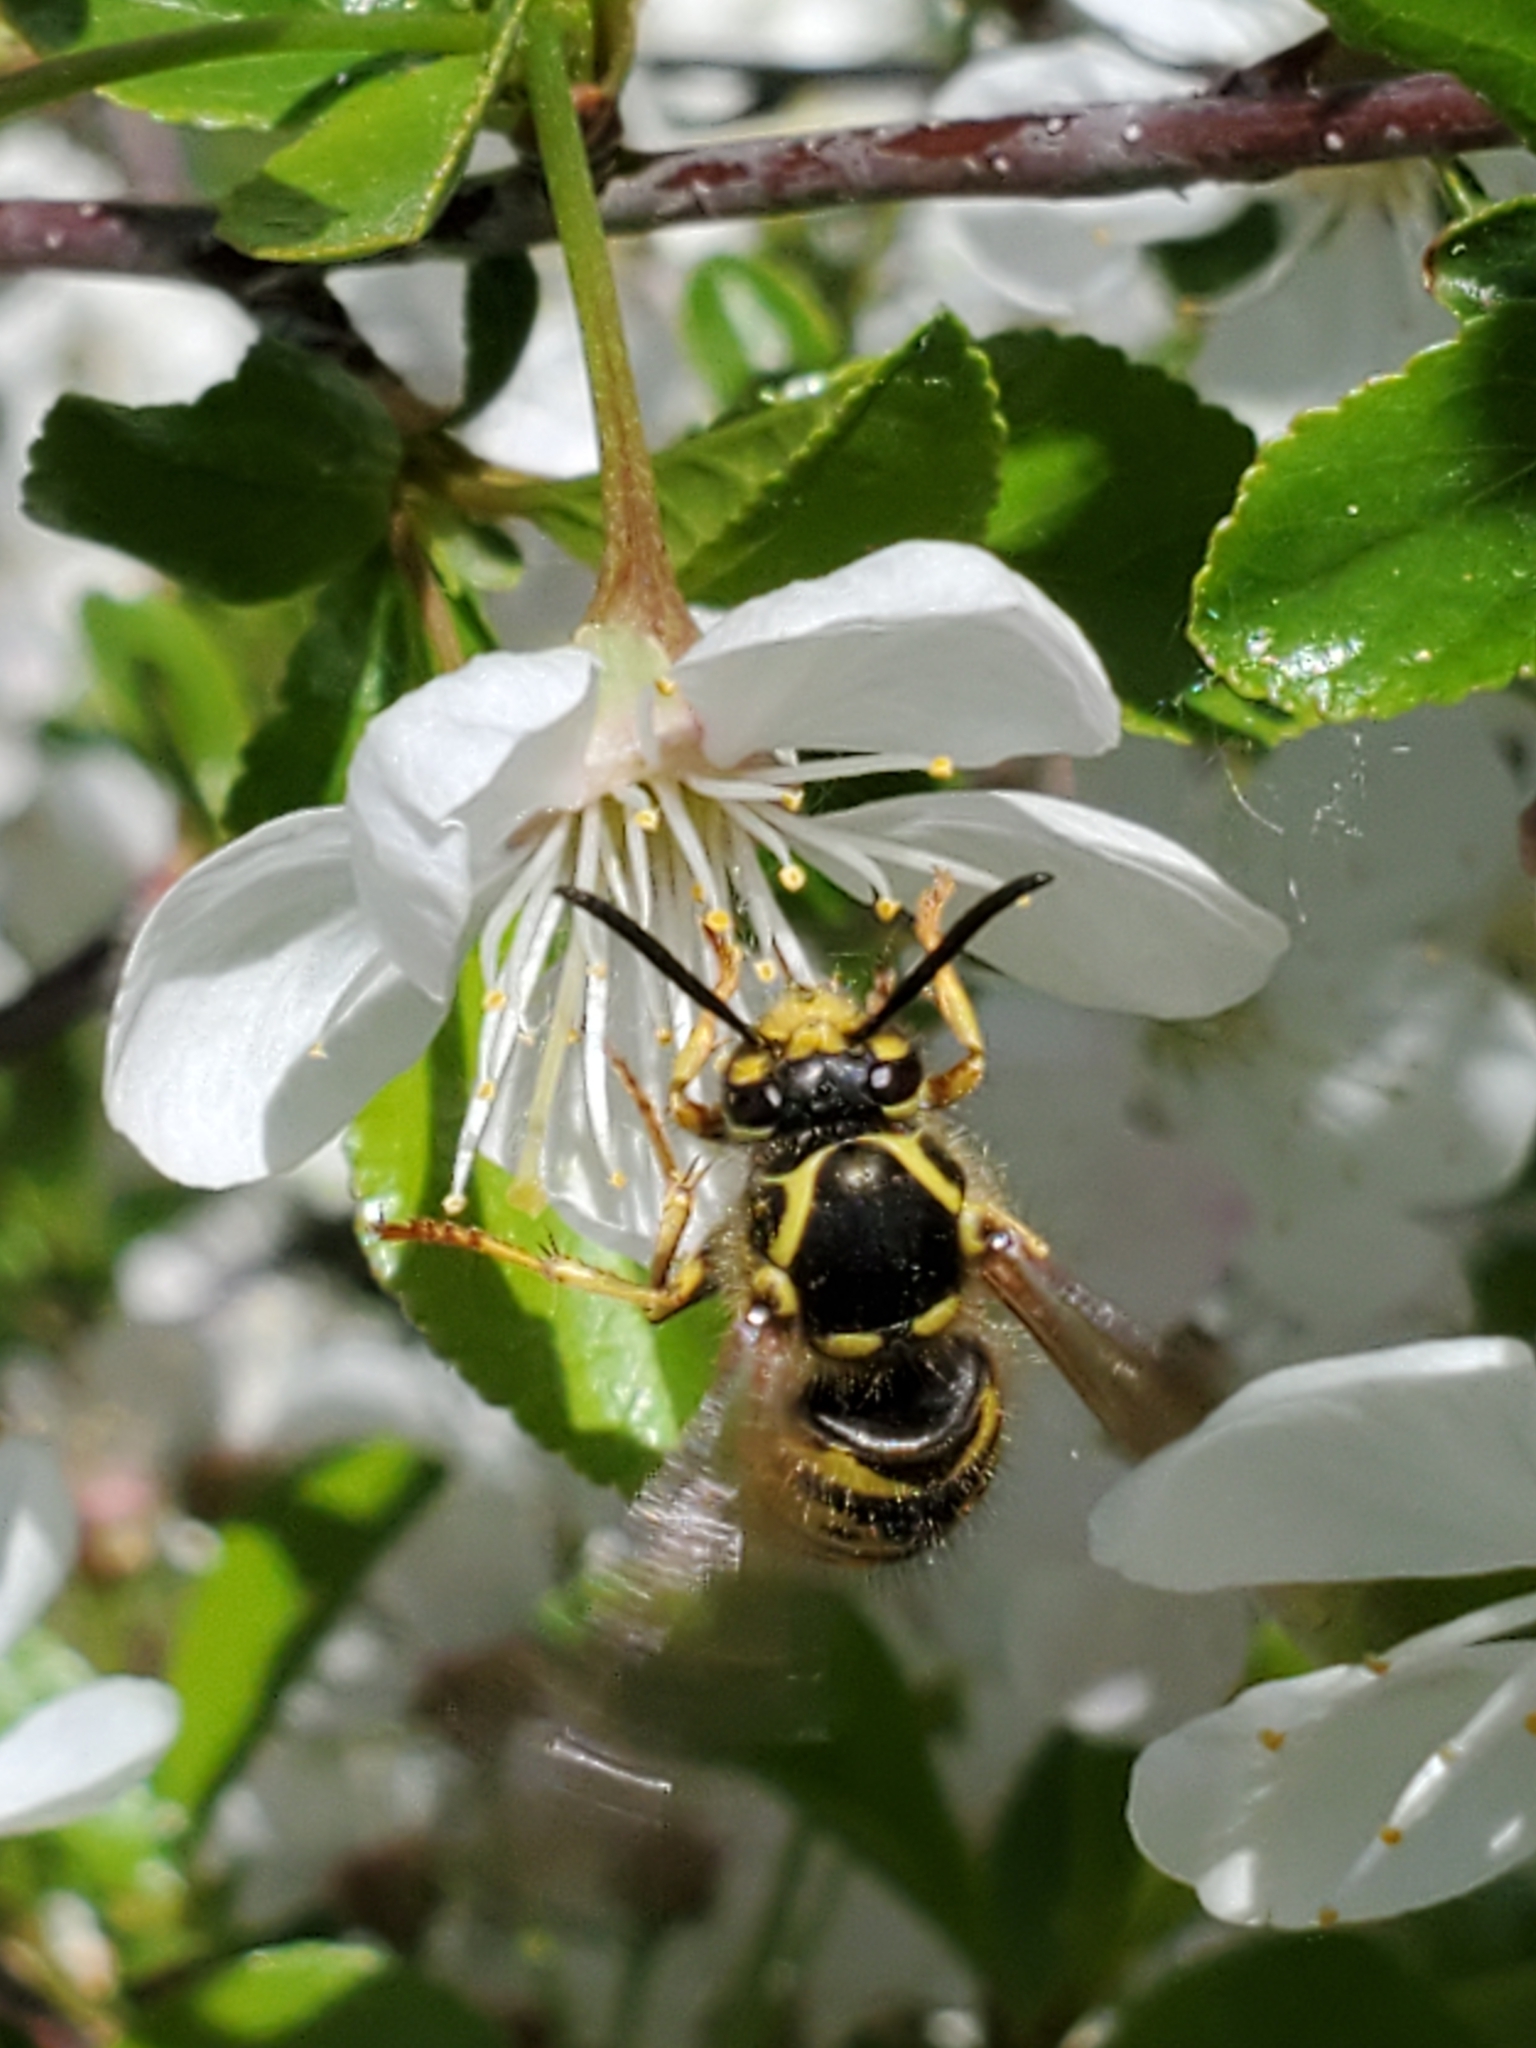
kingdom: Animalia
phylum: Arthropoda
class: Insecta
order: Hymenoptera
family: Vespidae
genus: Dolichovespula
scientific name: Dolichovespula arenaria
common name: Aerial yellowjacket
